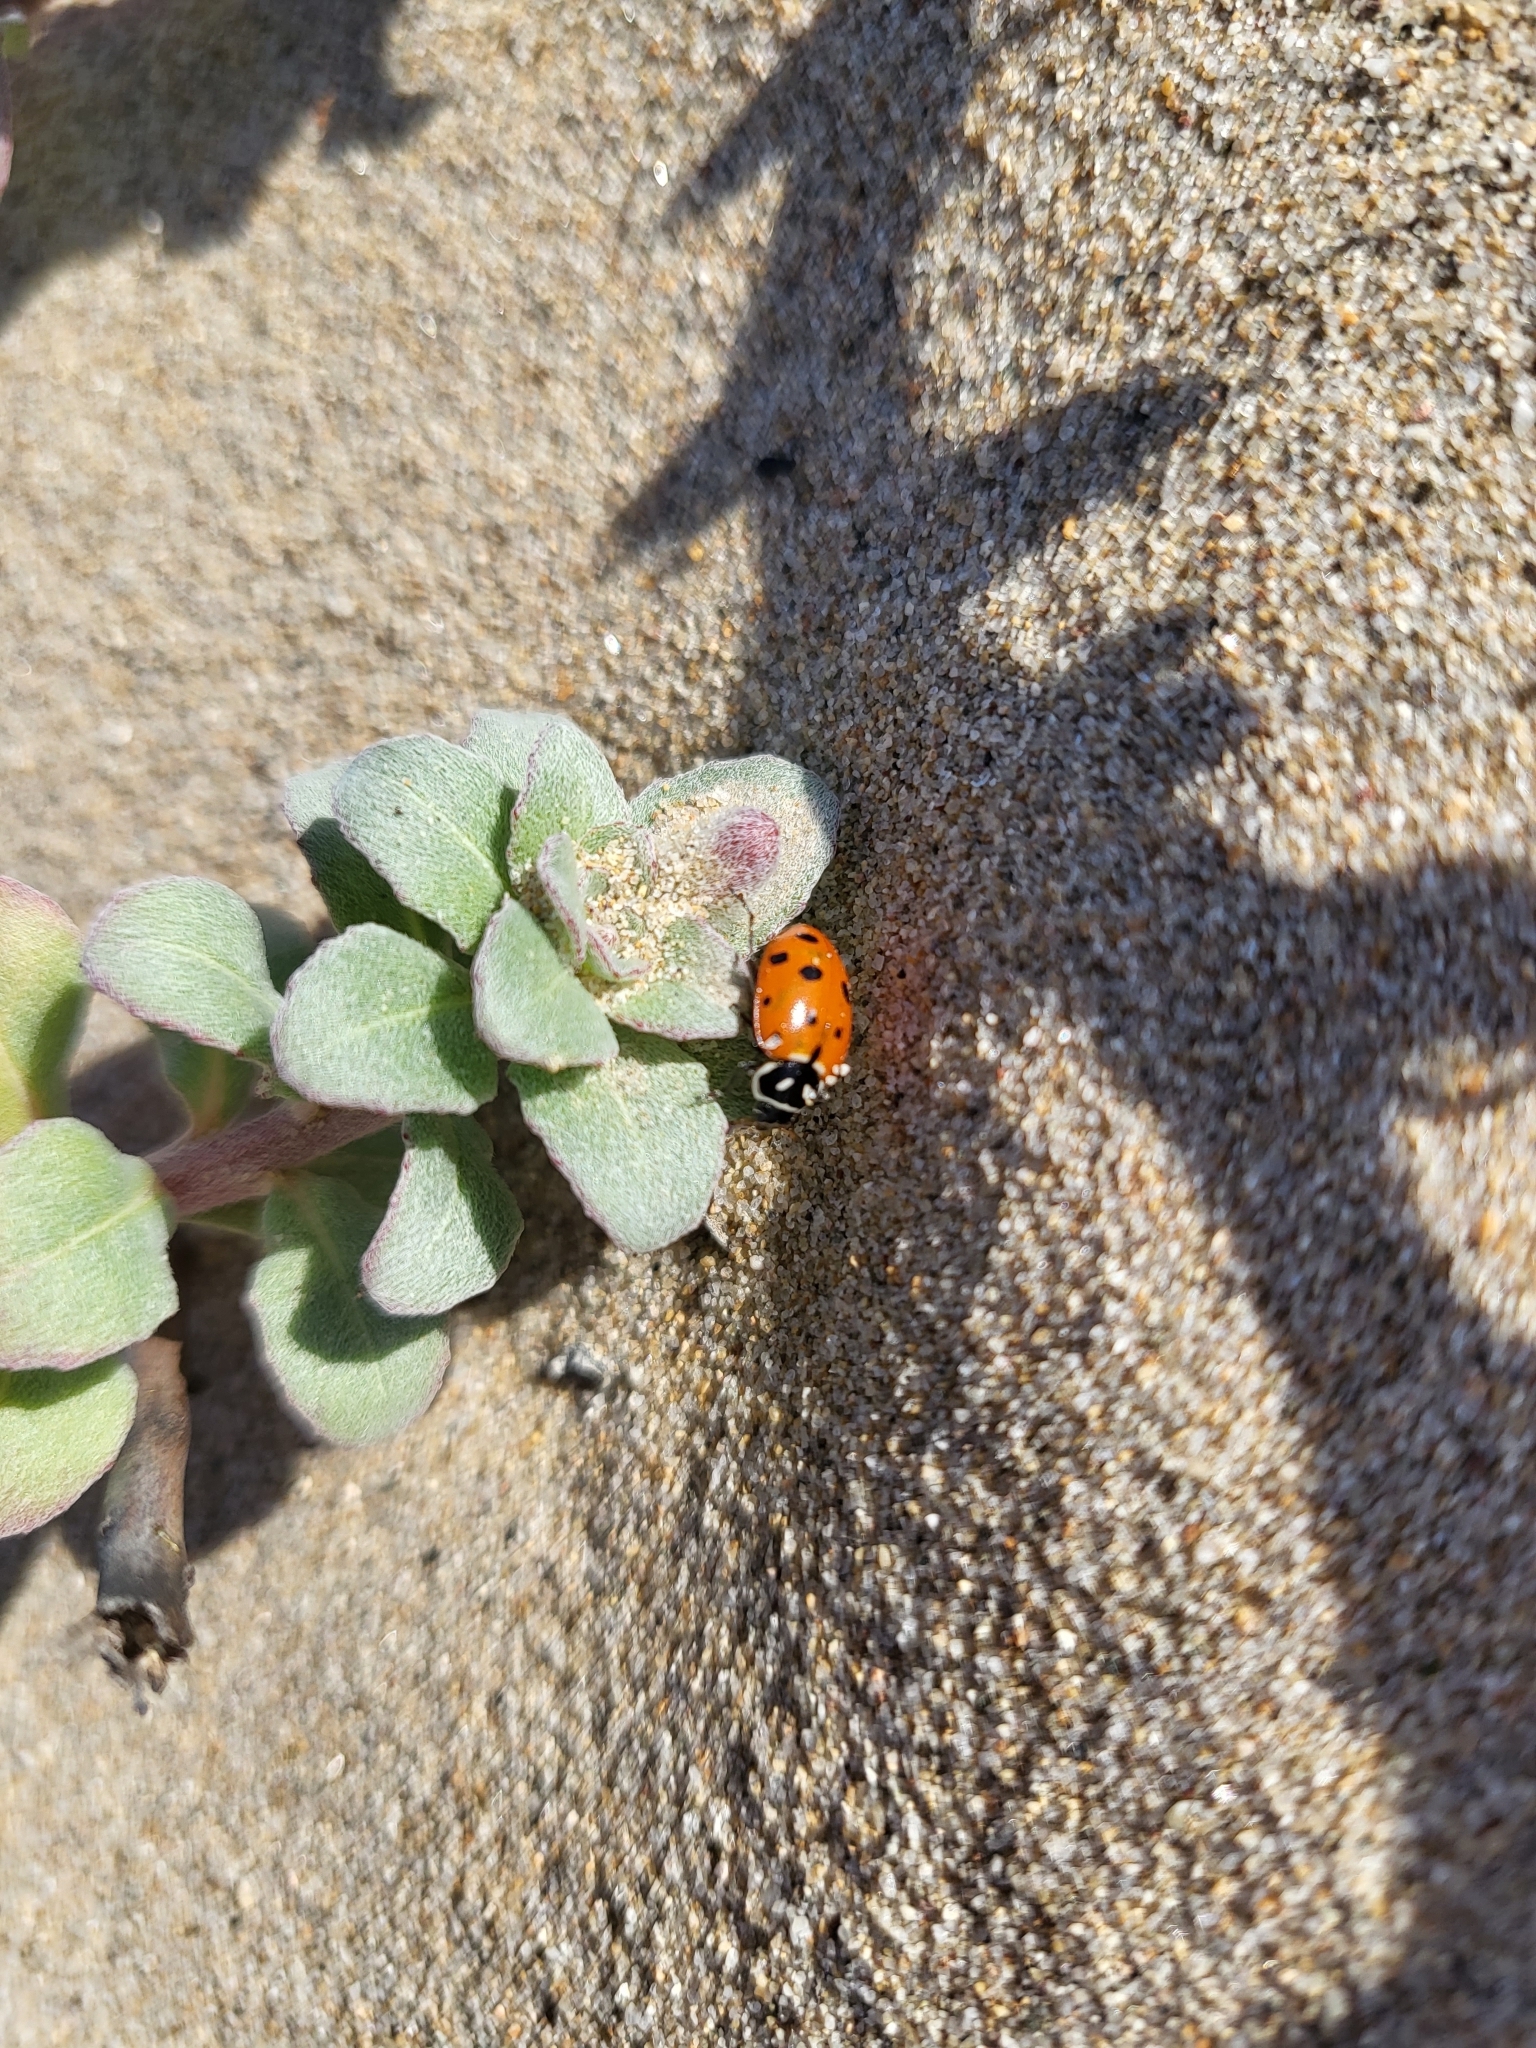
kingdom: Animalia
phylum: Arthropoda
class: Insecta
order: Coleoptera
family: Coccinellidae
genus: Hippodamia
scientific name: Hippodamia convergens
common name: Convergent lady beetle
